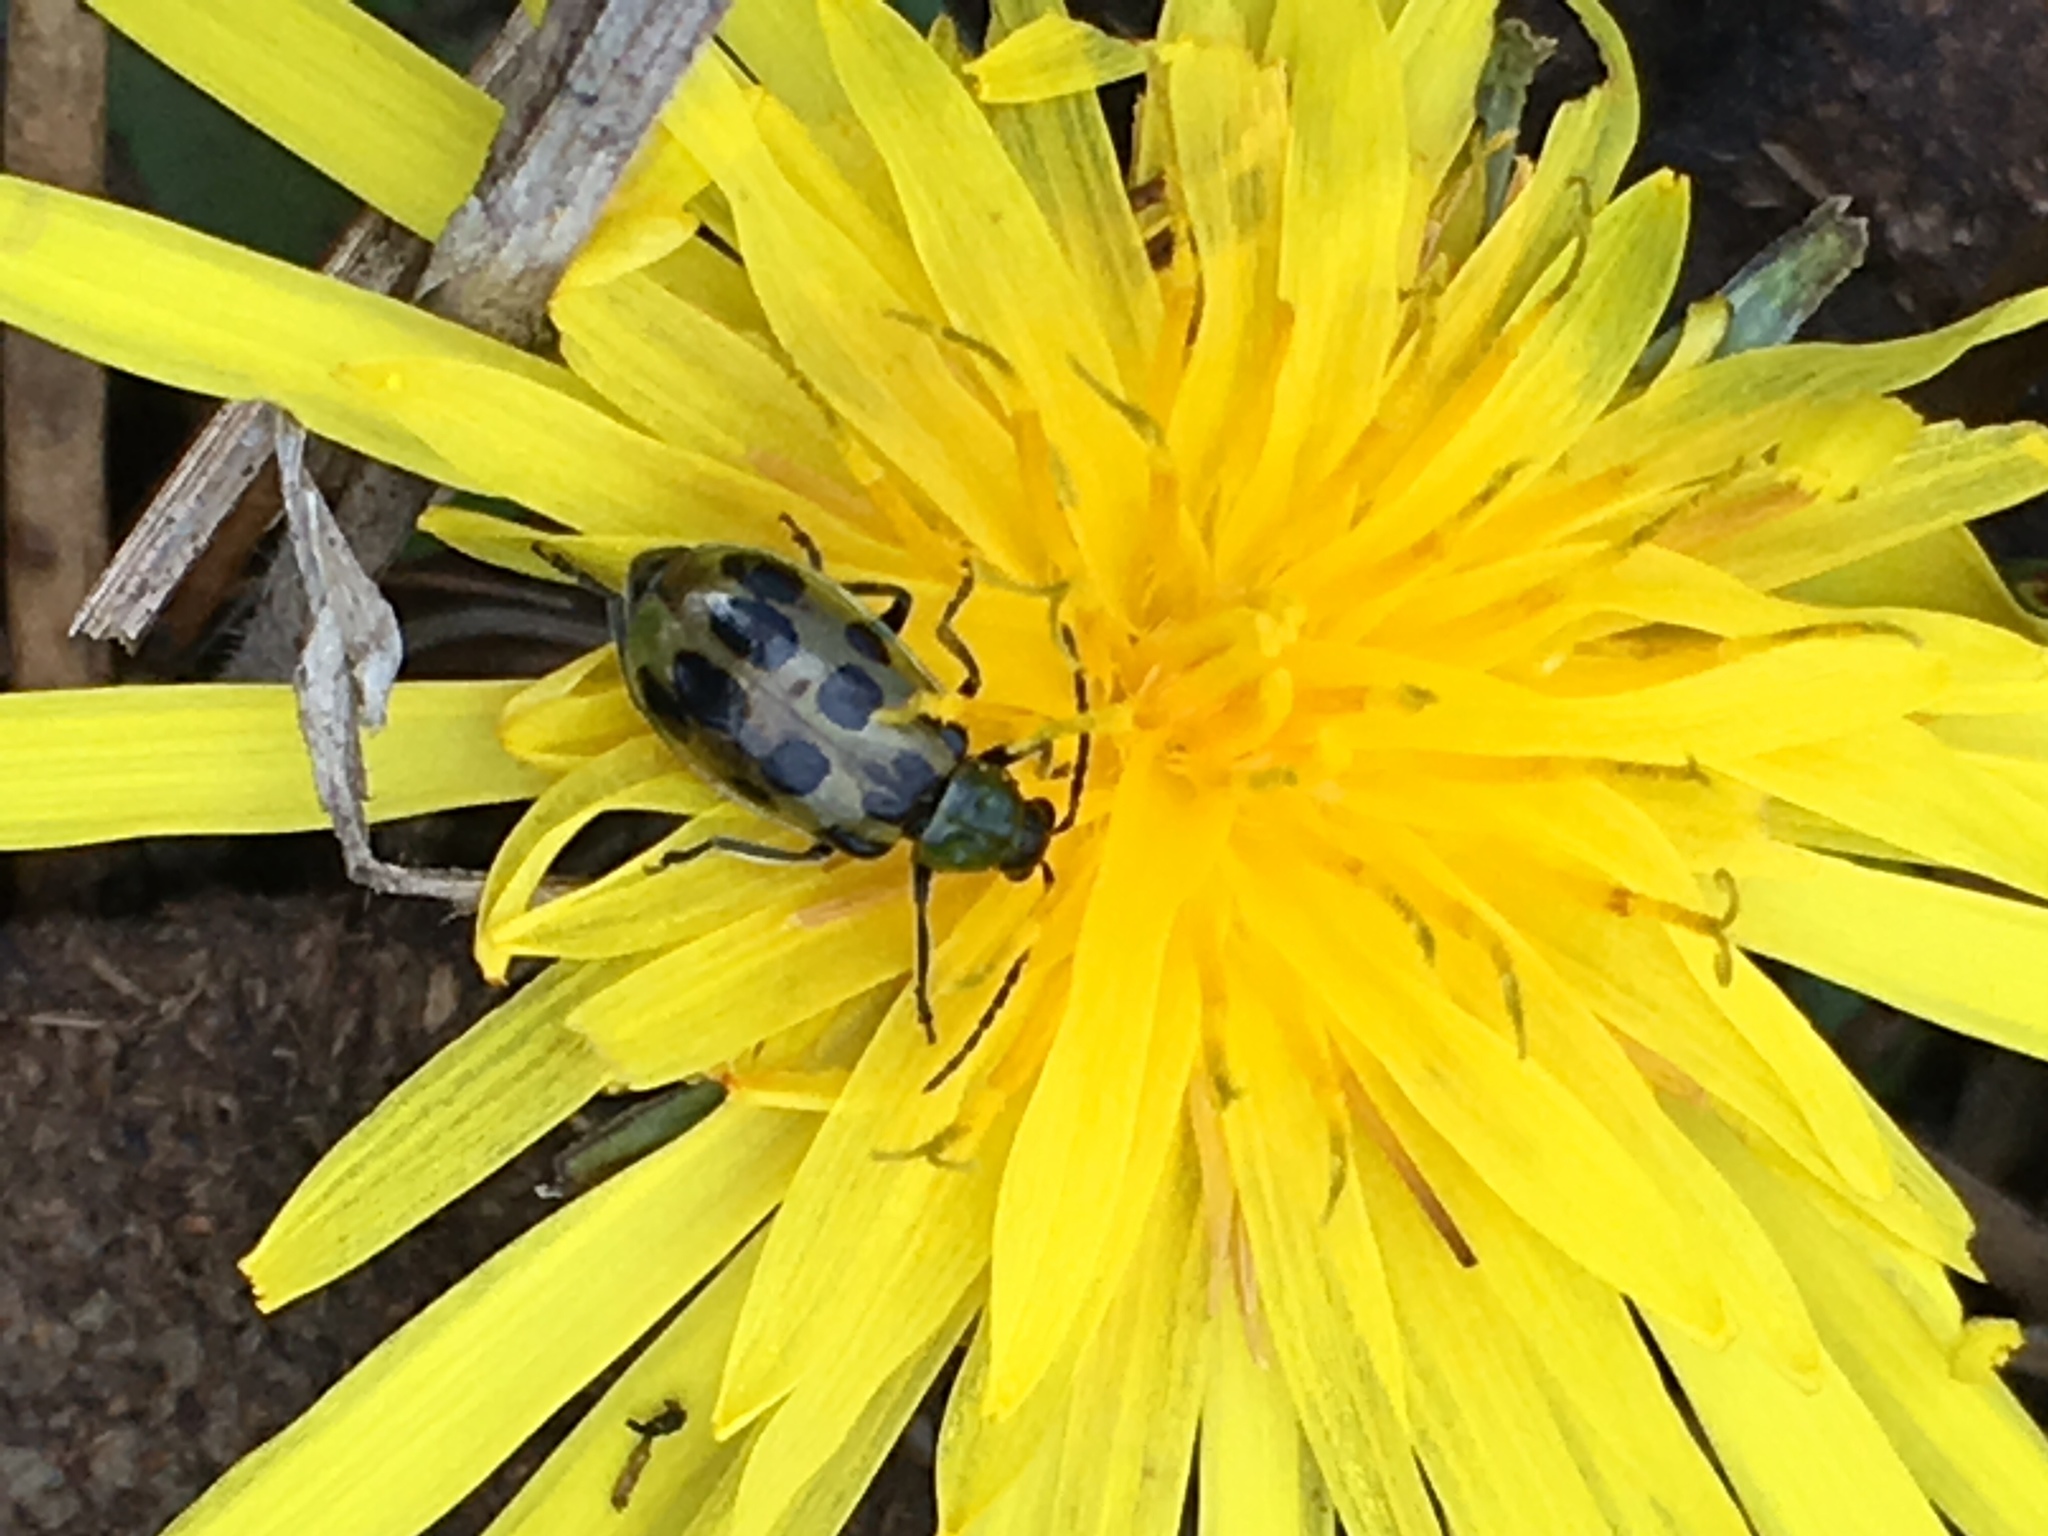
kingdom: Animalia
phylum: Arthropoda
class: Insecta
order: Coleoptera
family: Chrysomelidae
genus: Diabrotica
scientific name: Diabrotica undecimpunctata
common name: Spotted cucumber beetle
